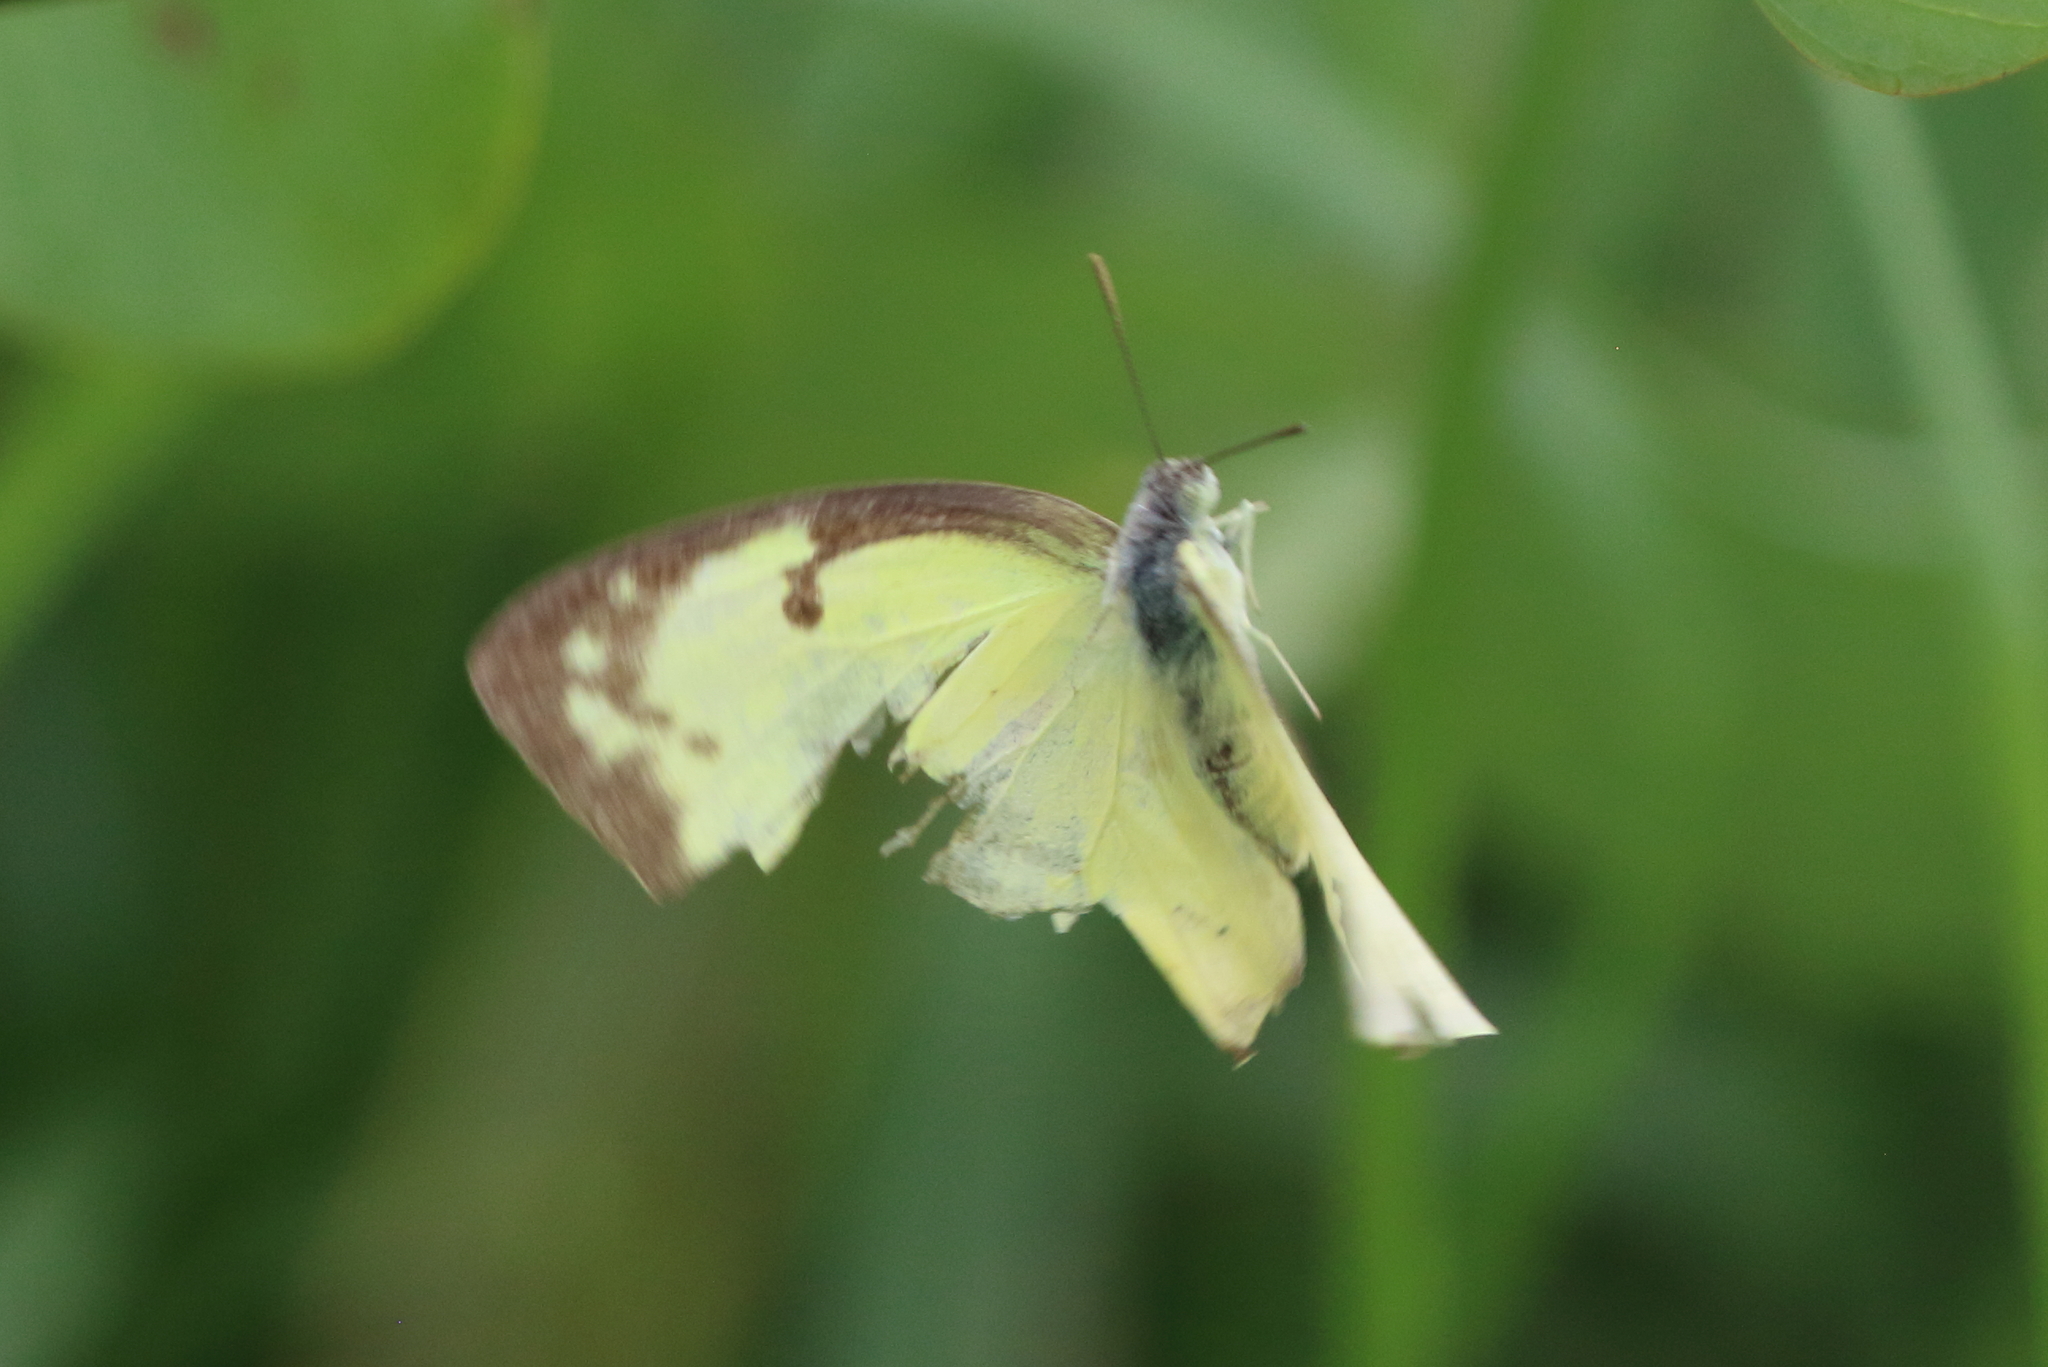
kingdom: Animalia
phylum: Arthropoda
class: Insecta
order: Lepidoptera
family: Pieridae
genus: Catopsilia
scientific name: Catopsilia pomona
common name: Common emigrant
